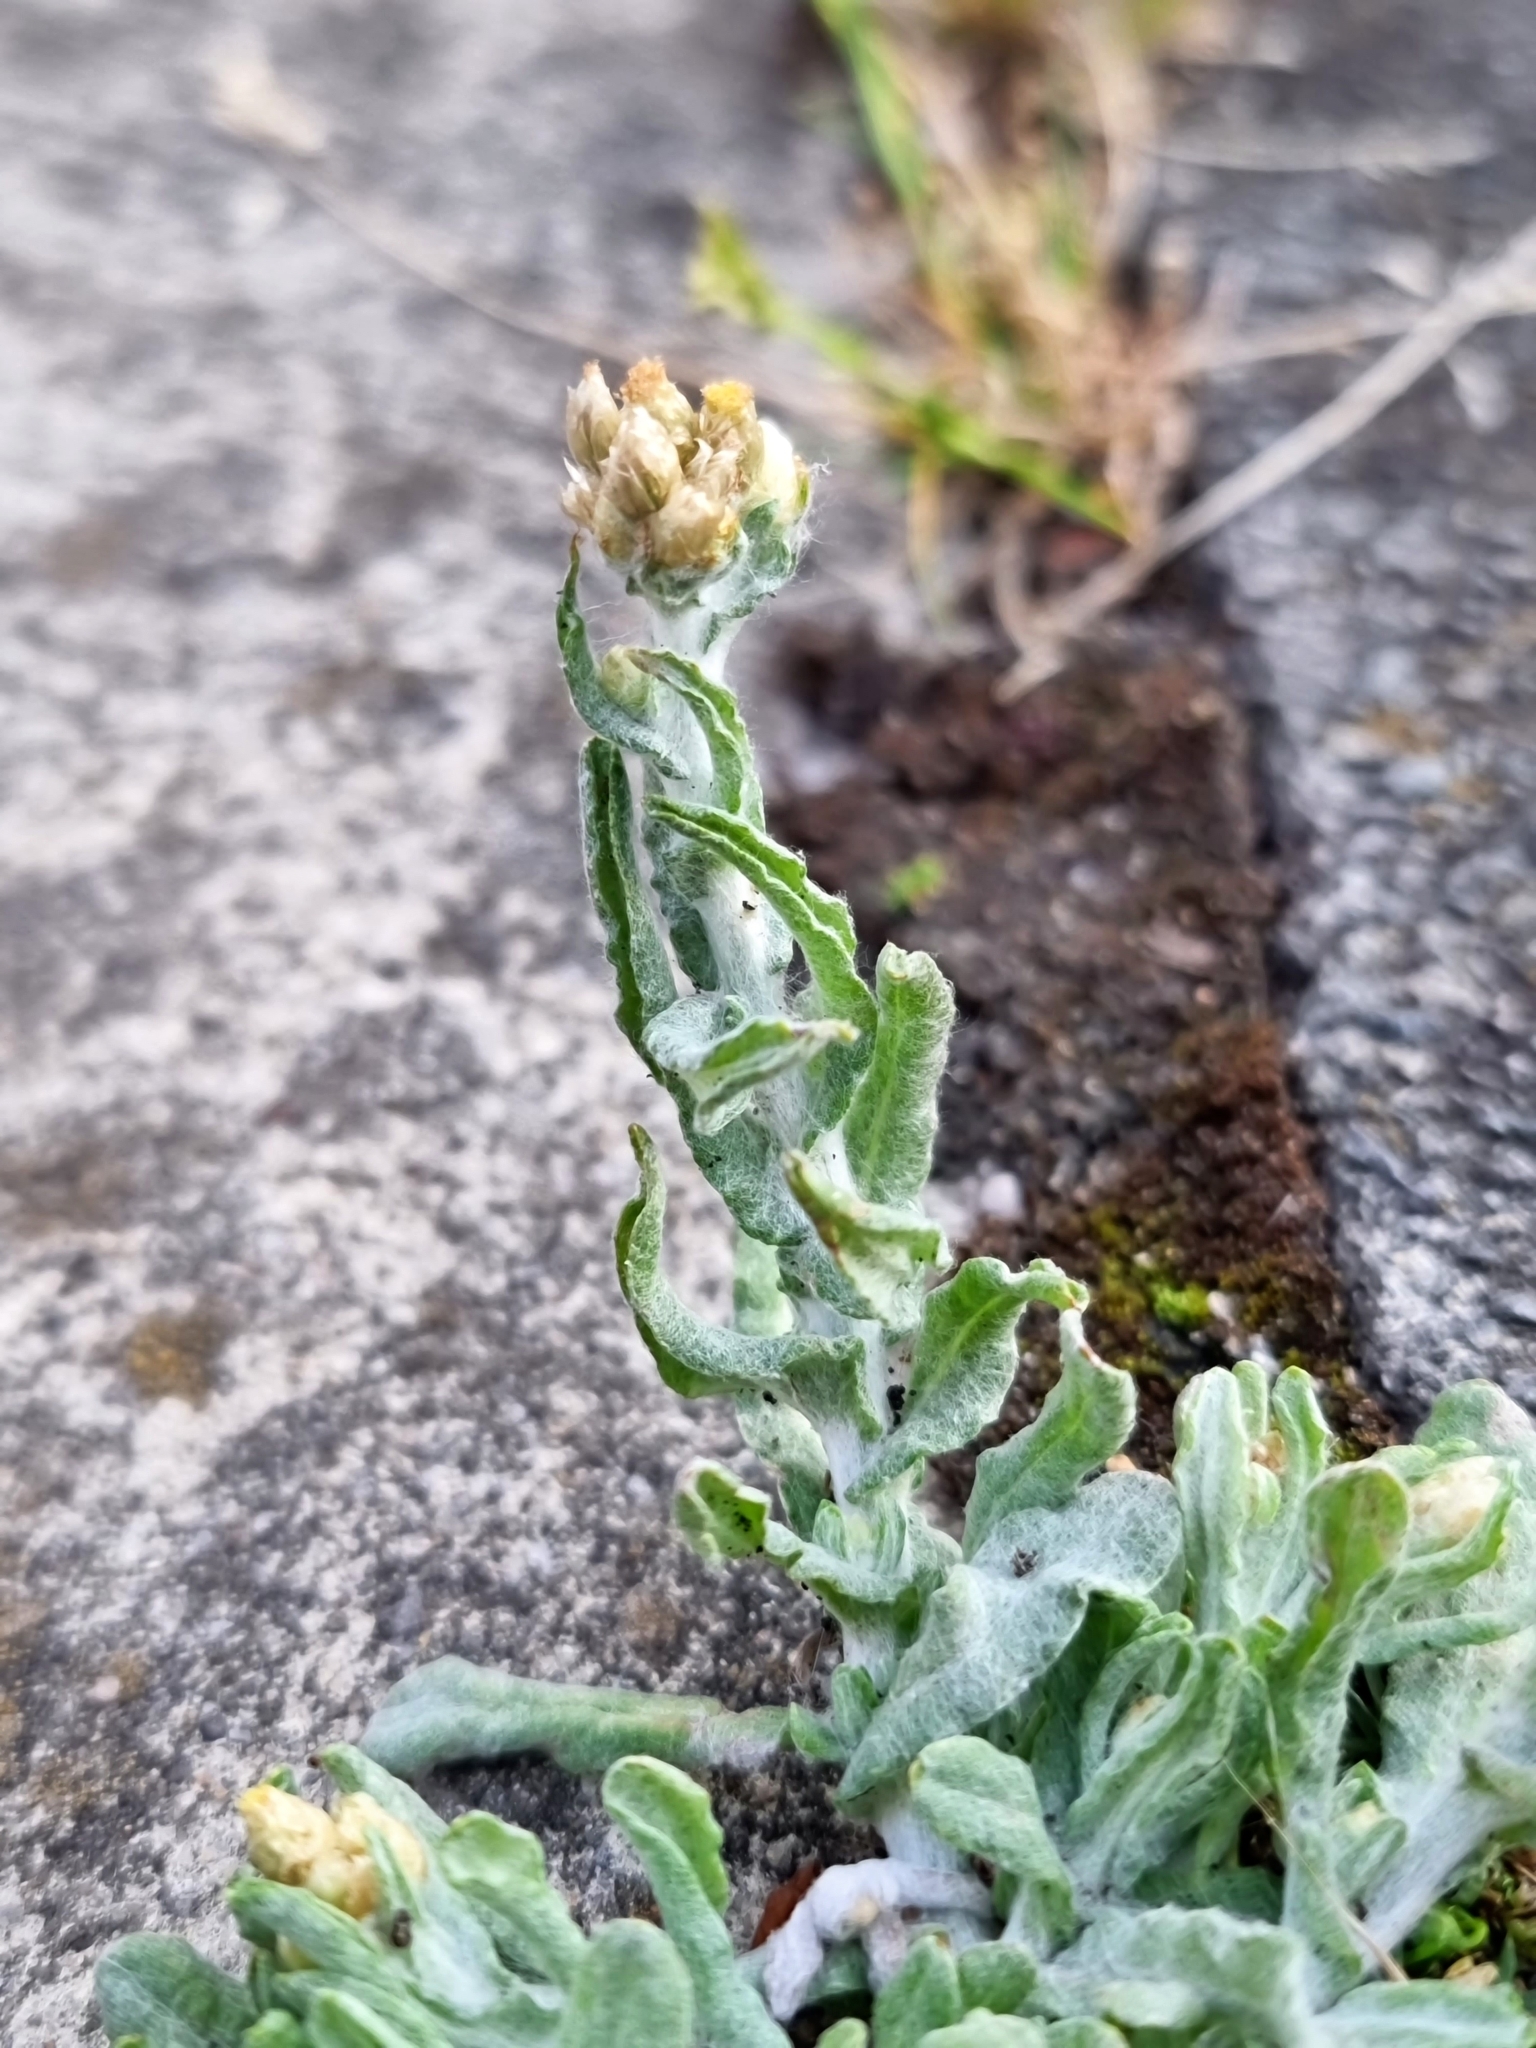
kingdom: Plantae
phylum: Tracheophyta
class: Magnoliopsida
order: Asterales
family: Asteraceae
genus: Helichrysum
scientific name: Helichrysum luteoalbum
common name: Daisy
